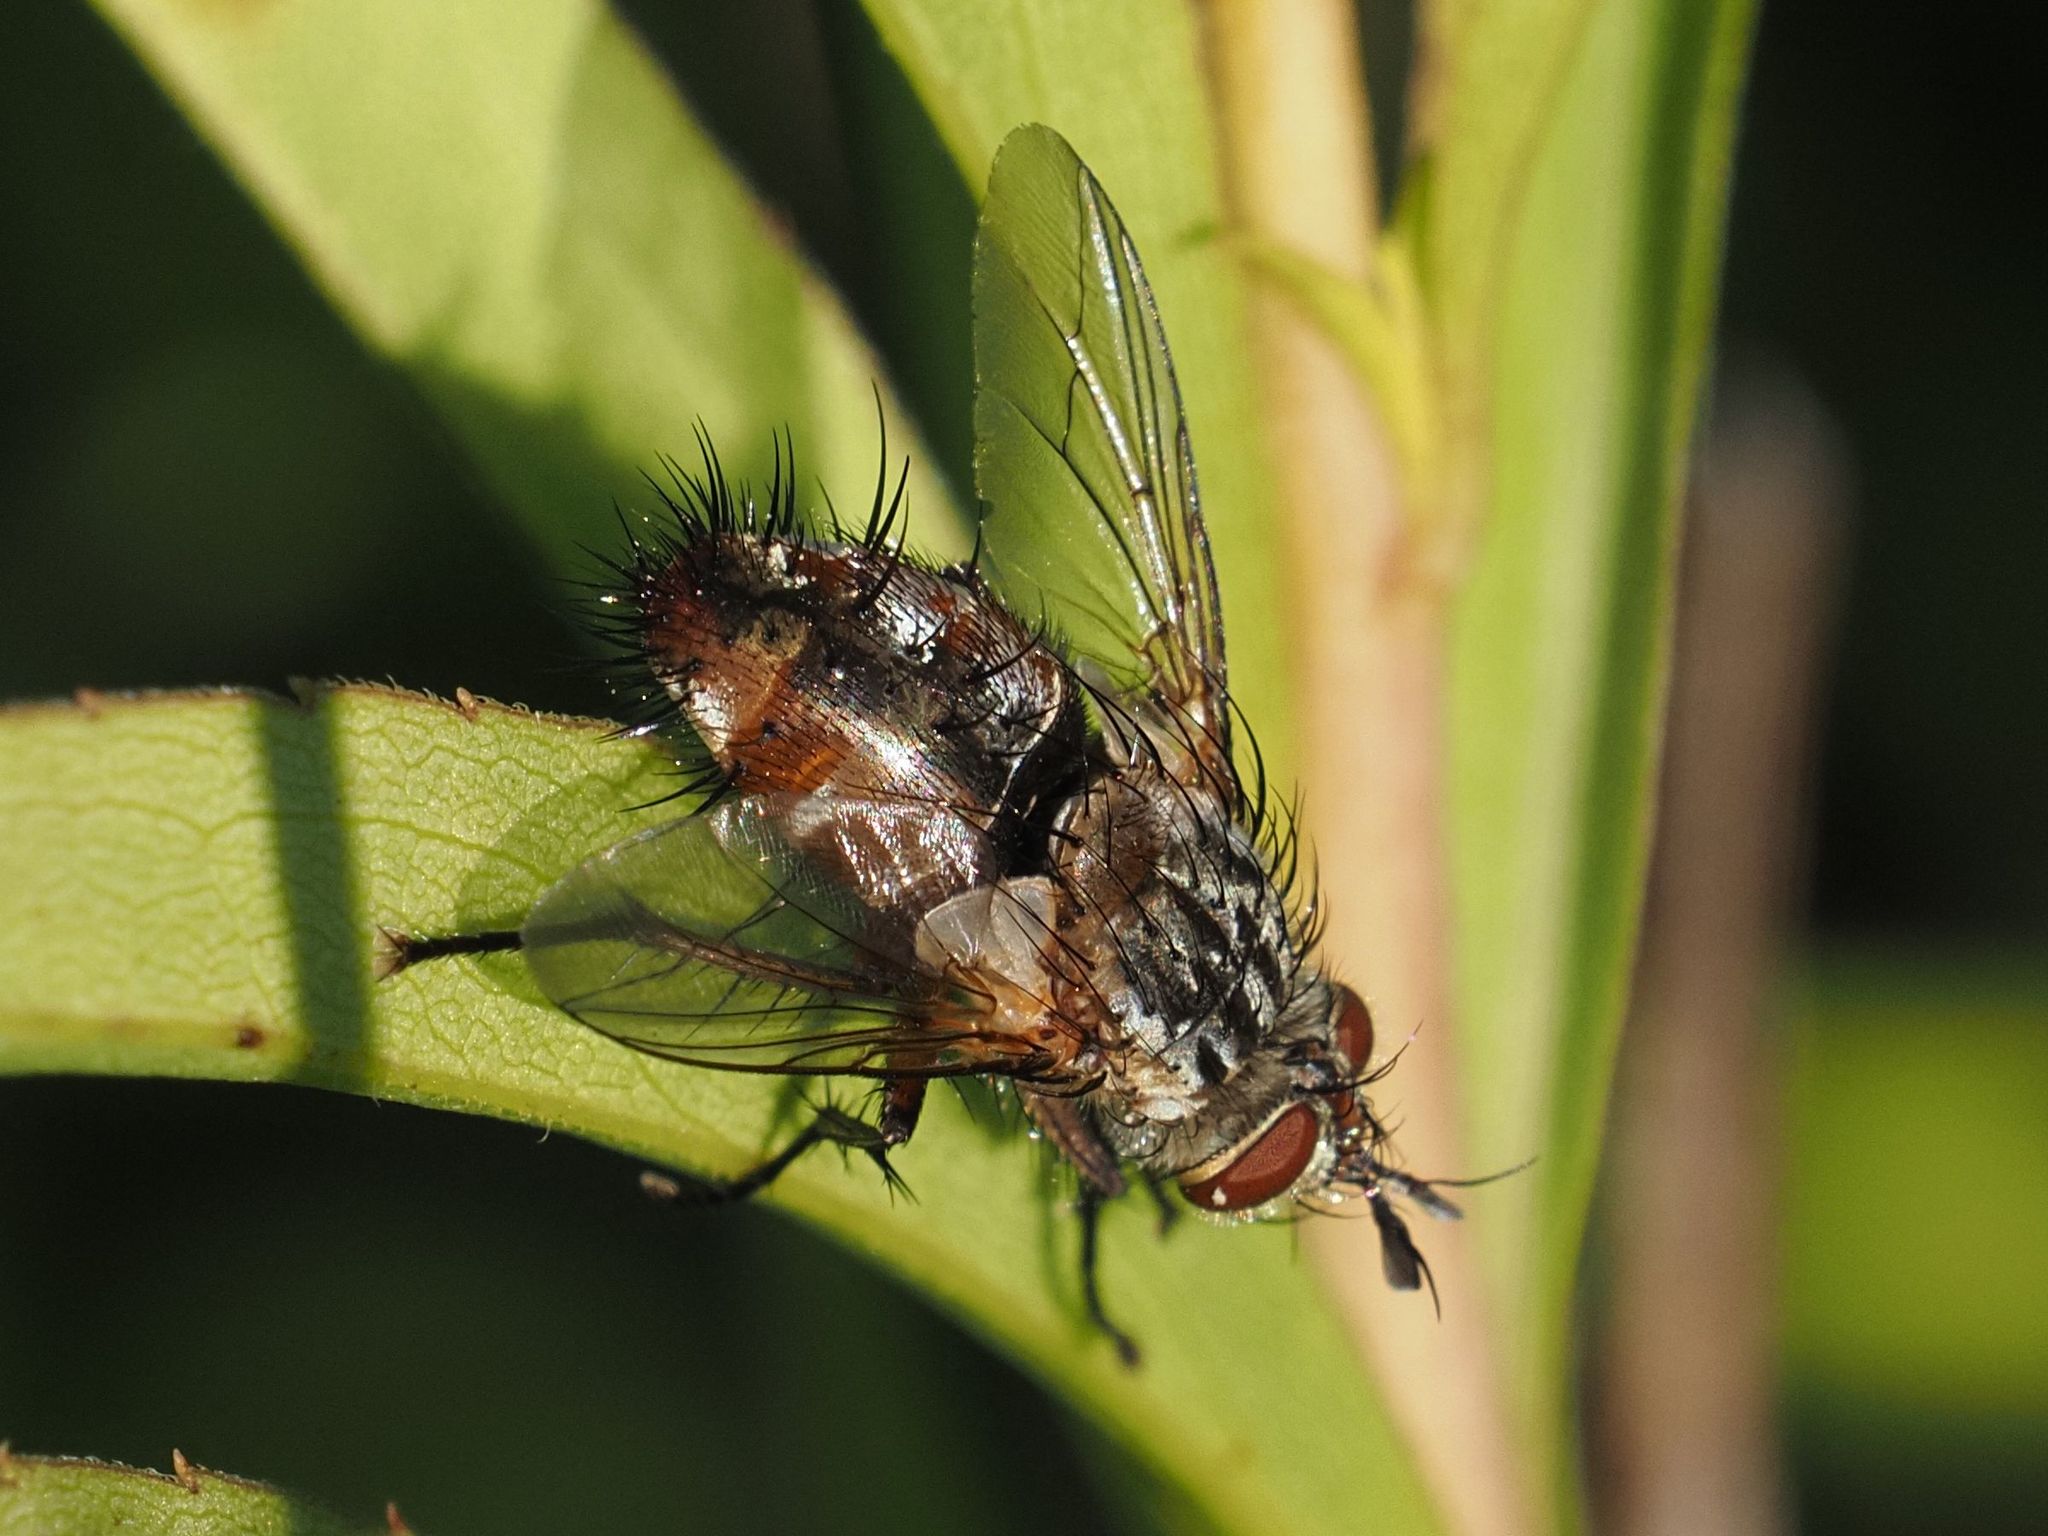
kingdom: Animalia
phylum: Arthropoda
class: Insecta
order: Diptera
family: Tachinidae
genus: Linnaemya
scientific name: Linnaemya vulpina
